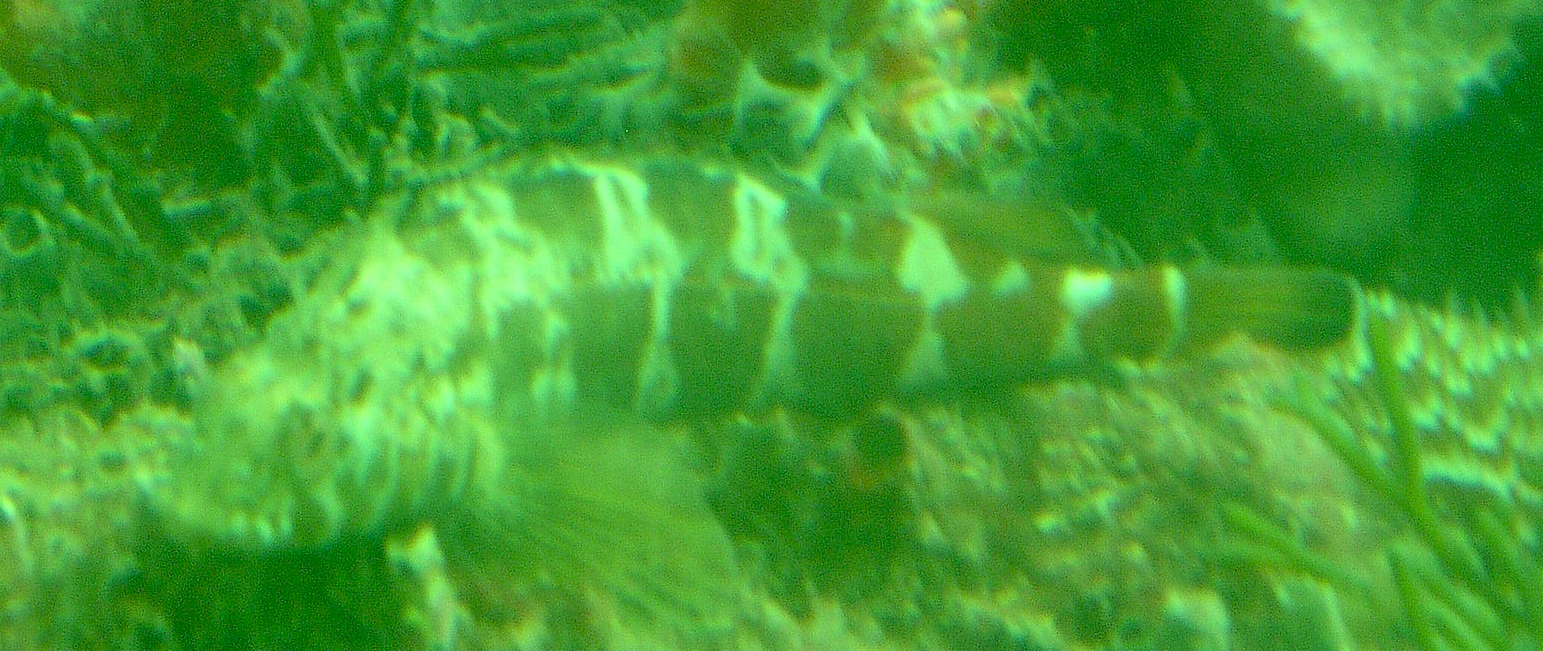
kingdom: Animalia
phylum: Chordata
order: Perciformes
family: Tripterygiidae
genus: Forsterygion
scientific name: Forsterygion malcolmi
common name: Mottled triplefin
